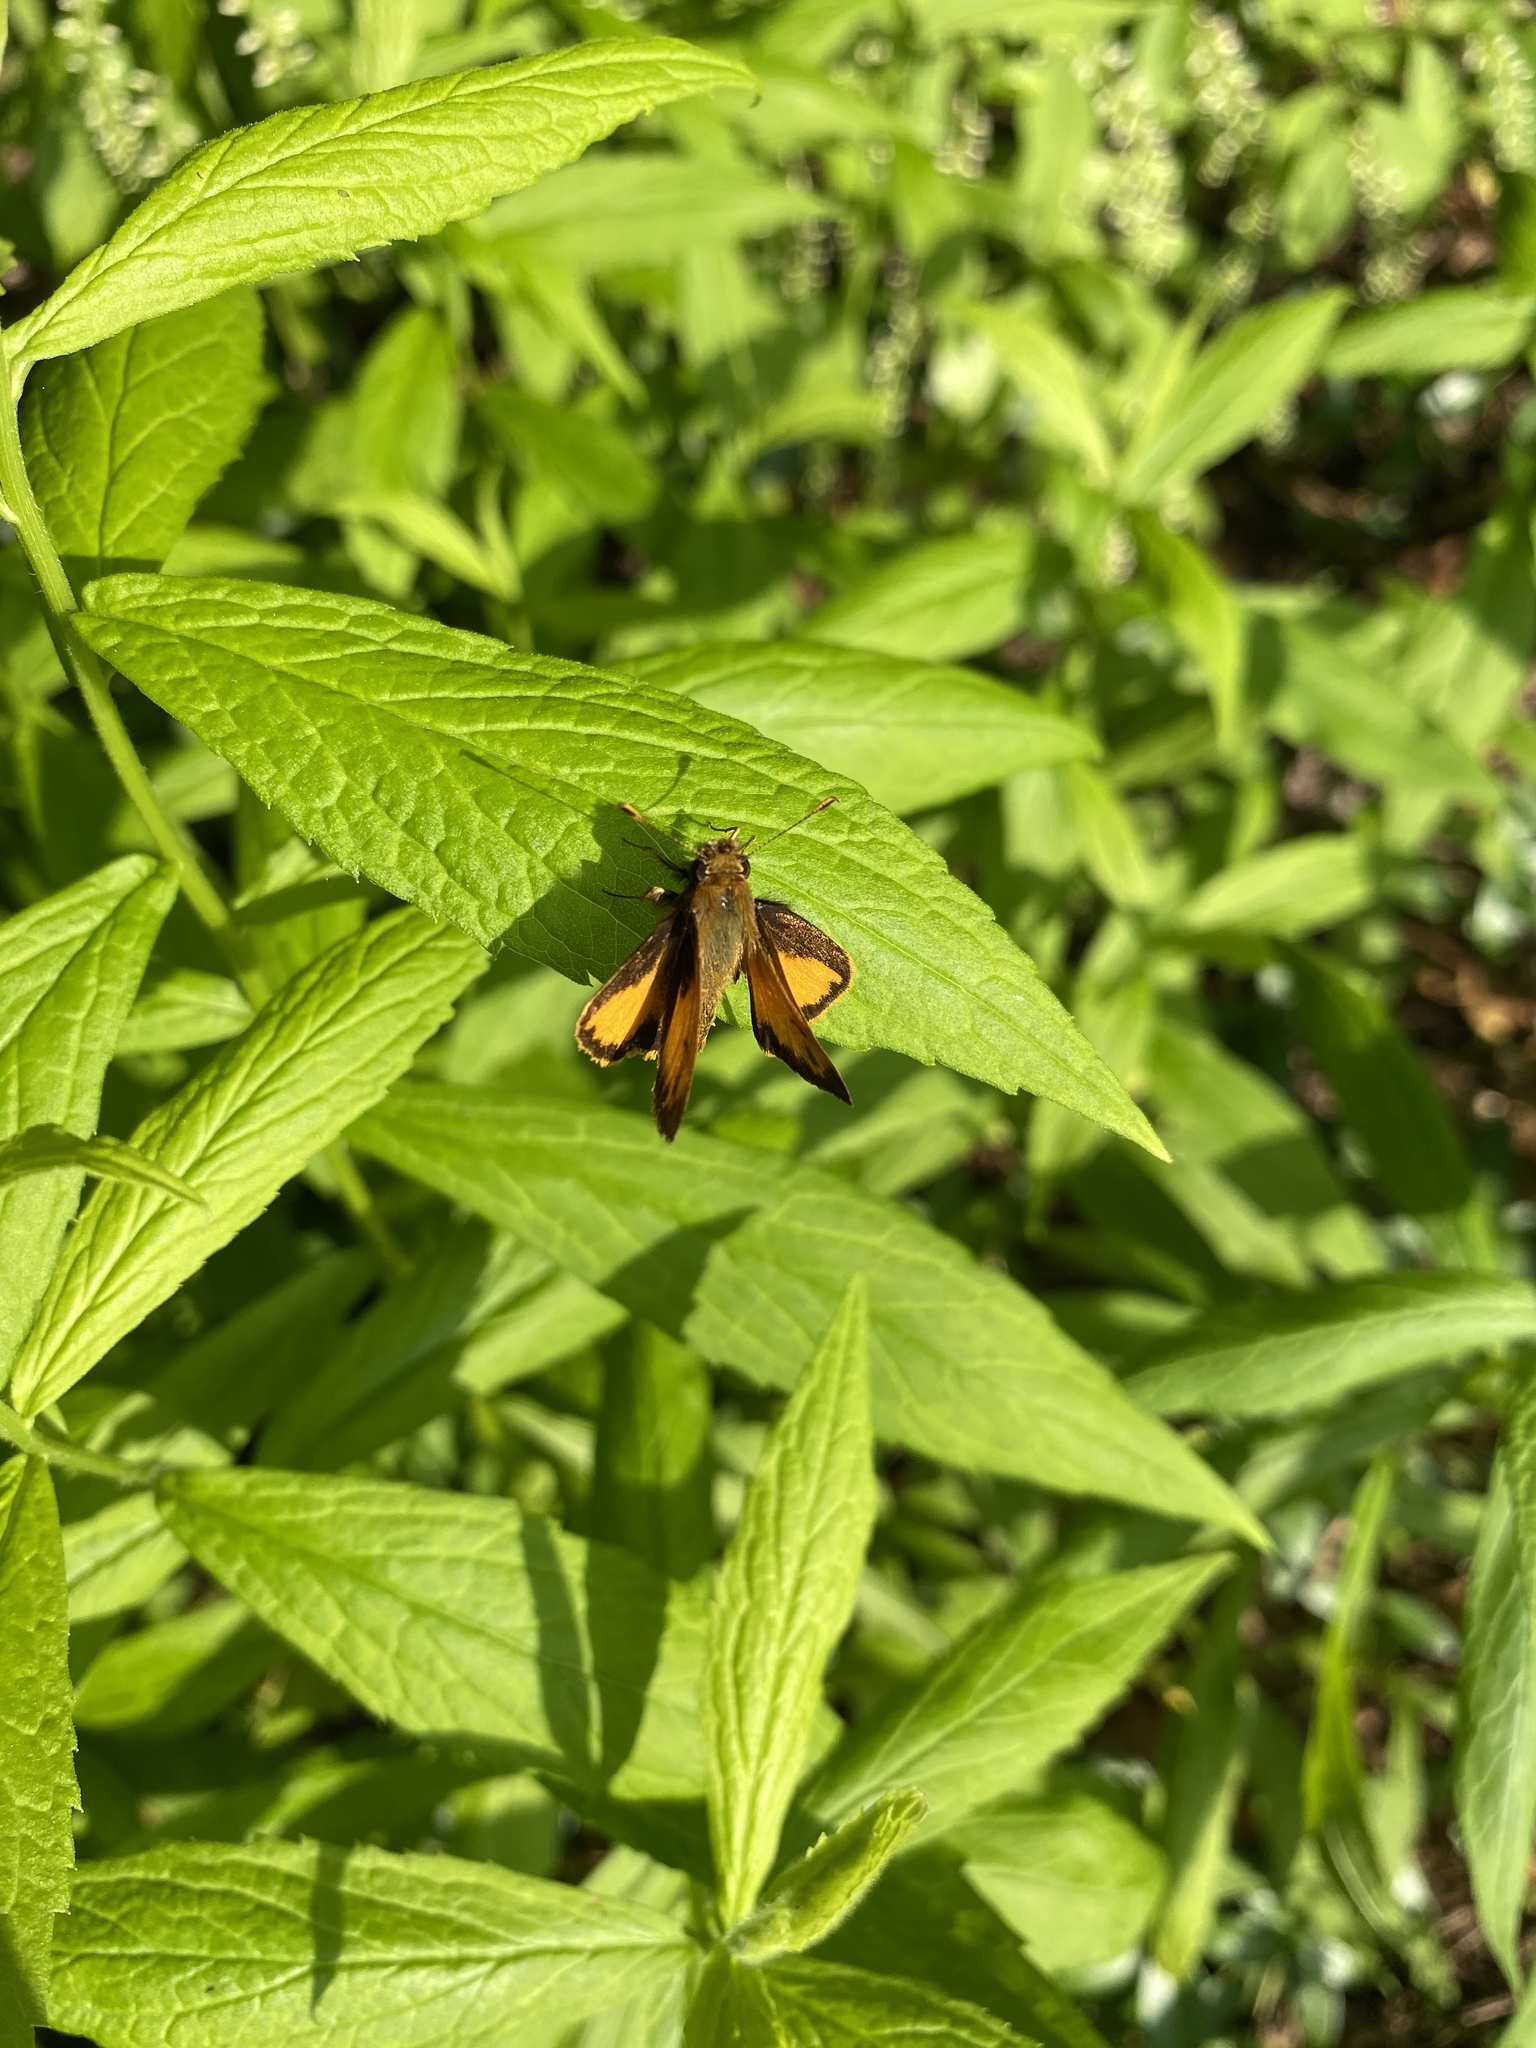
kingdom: Animalia
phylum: Arthropoda
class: Insecta
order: Lepidoptera
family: Hesperiidae
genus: Lon
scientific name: Lon zabulon
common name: Zabulon skipper
